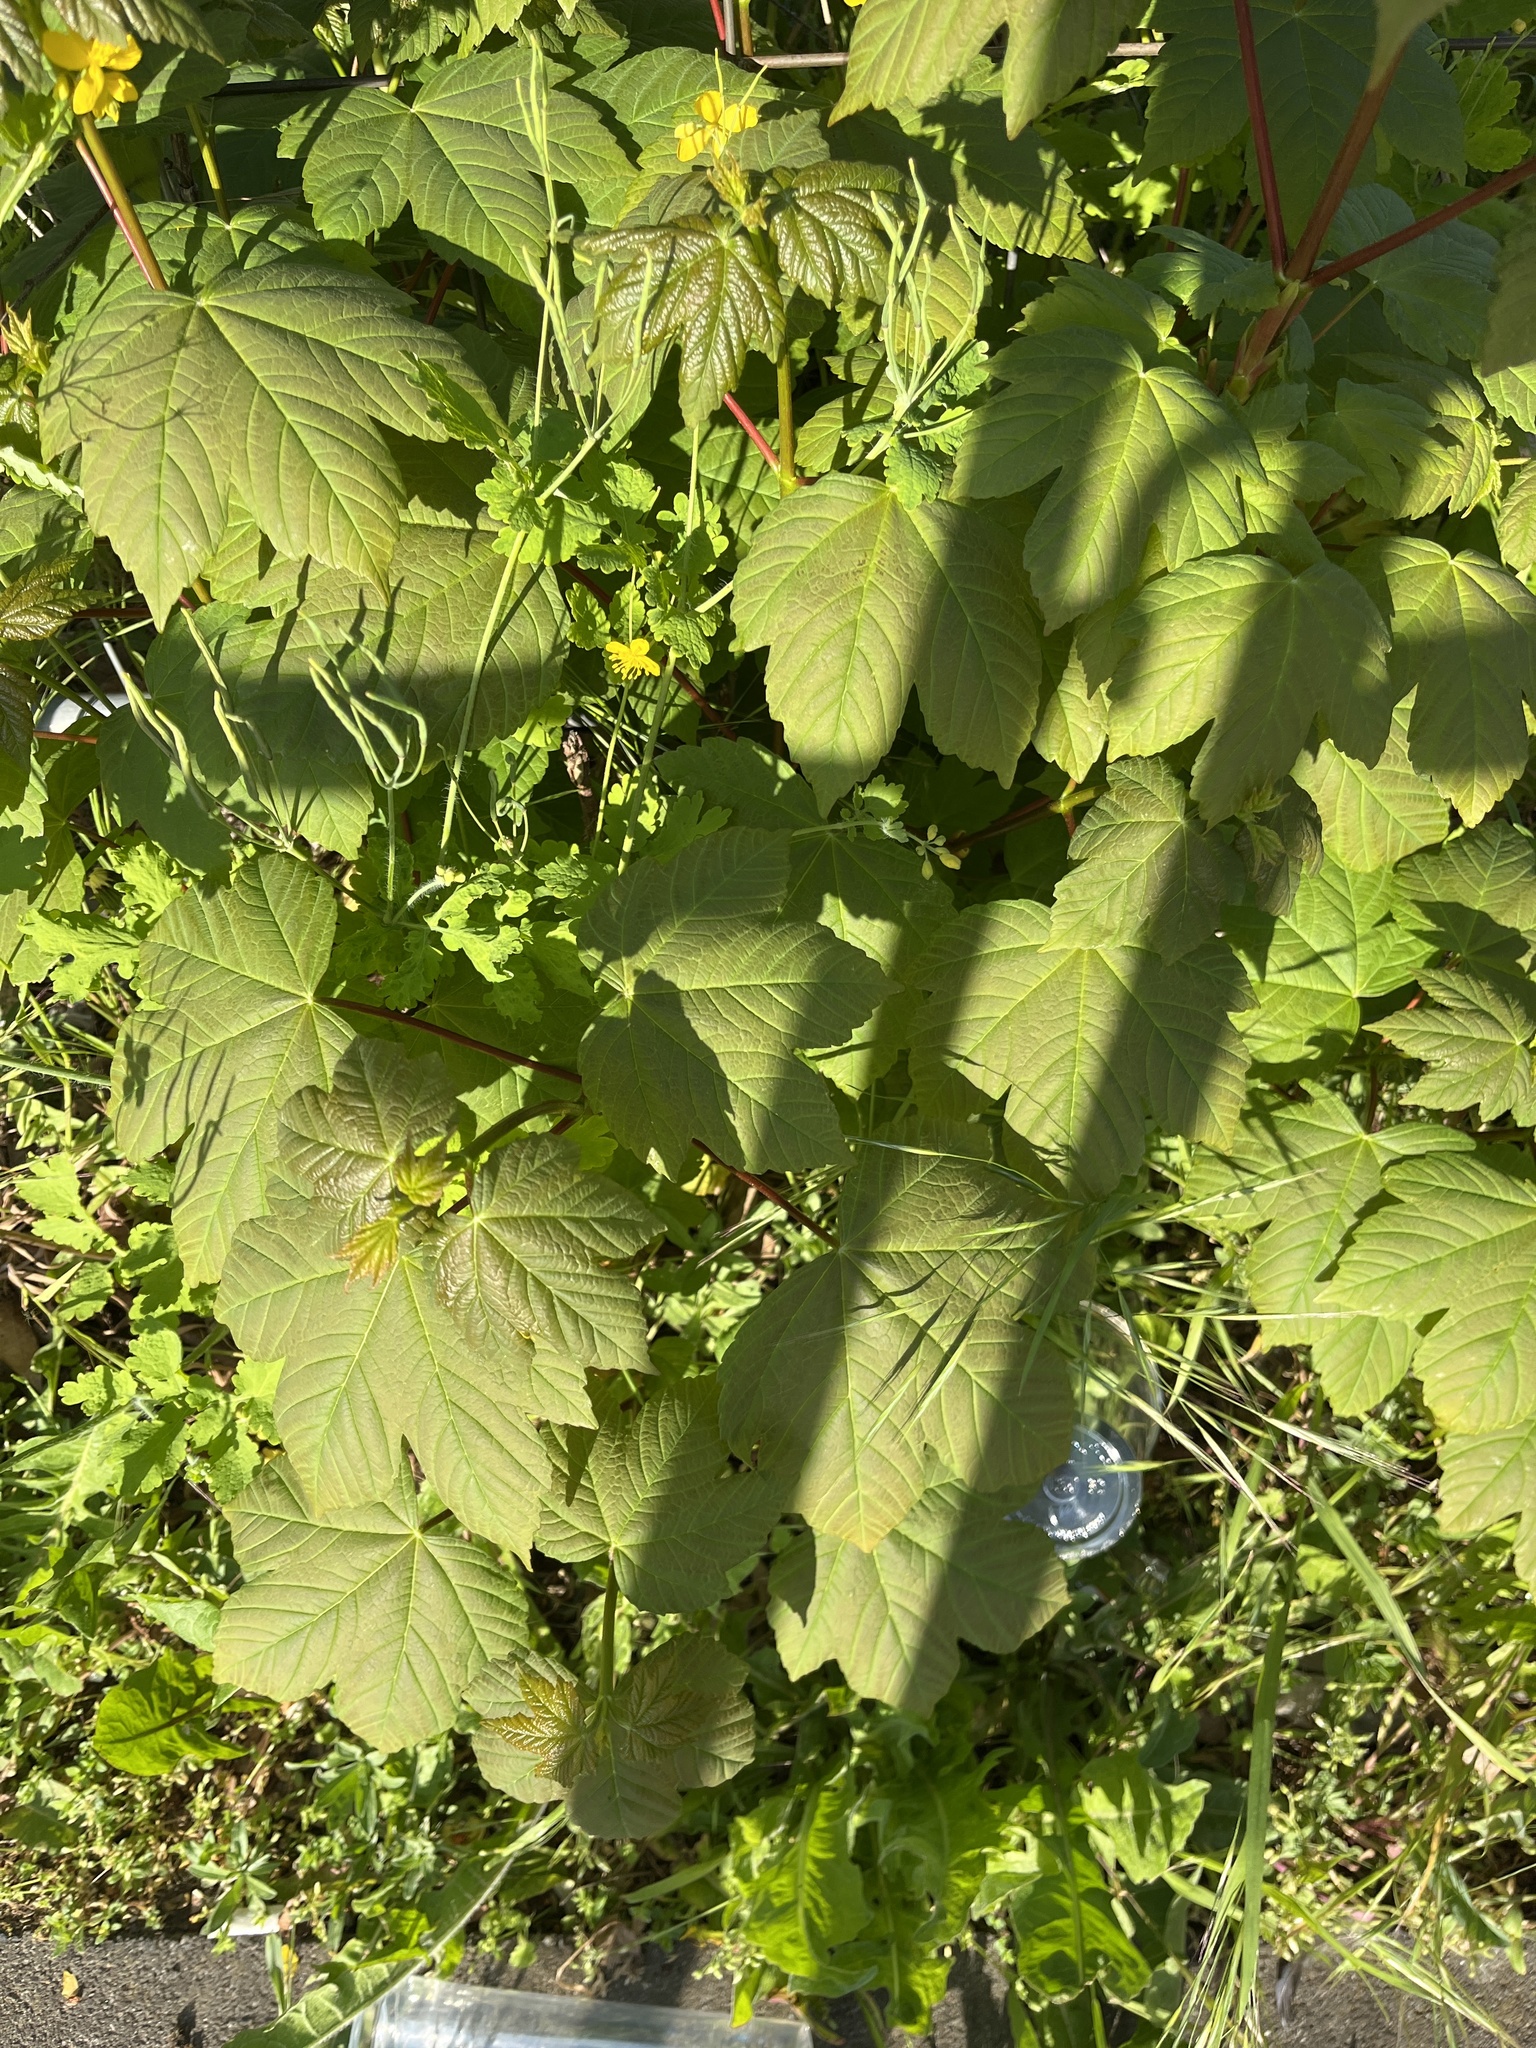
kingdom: Plantae
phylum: Tracheophyta
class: Magnoliopsida
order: Sapindales
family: Sapindaceae
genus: Acer
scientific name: Acer pseudoplatanus
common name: Sycamore
